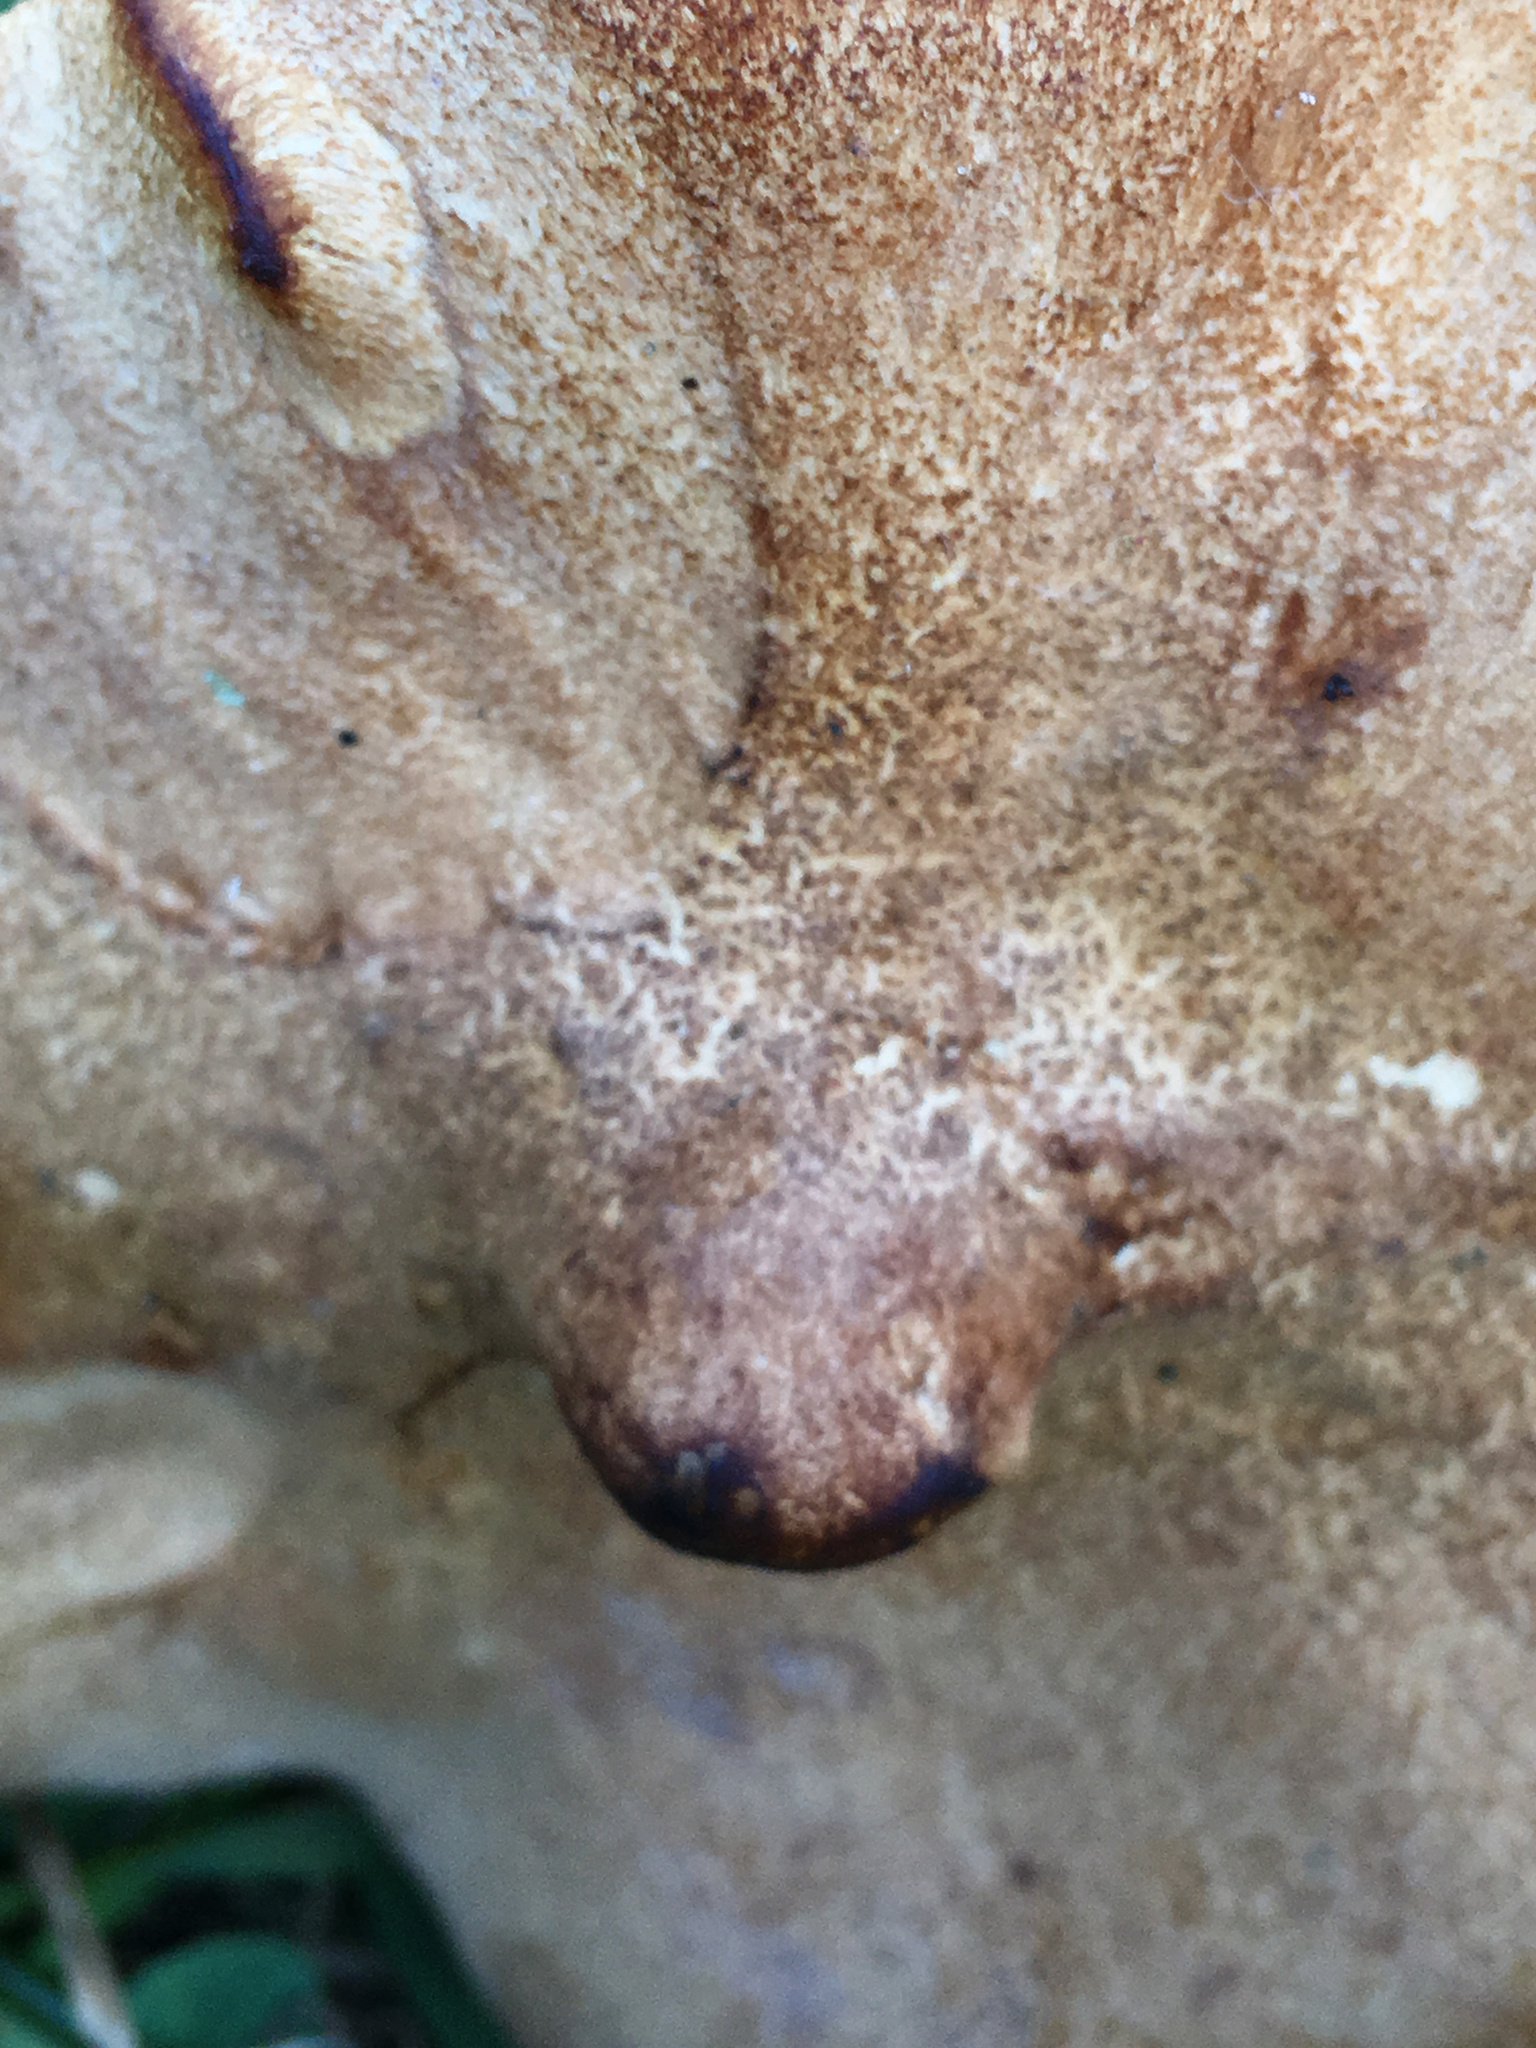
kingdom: Fungi
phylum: Basidiomycota
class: Agaricomycetes
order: Polyporales
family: Polyporaceae
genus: Polyporus
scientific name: Polyporus radicatus
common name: Rooting polypore
